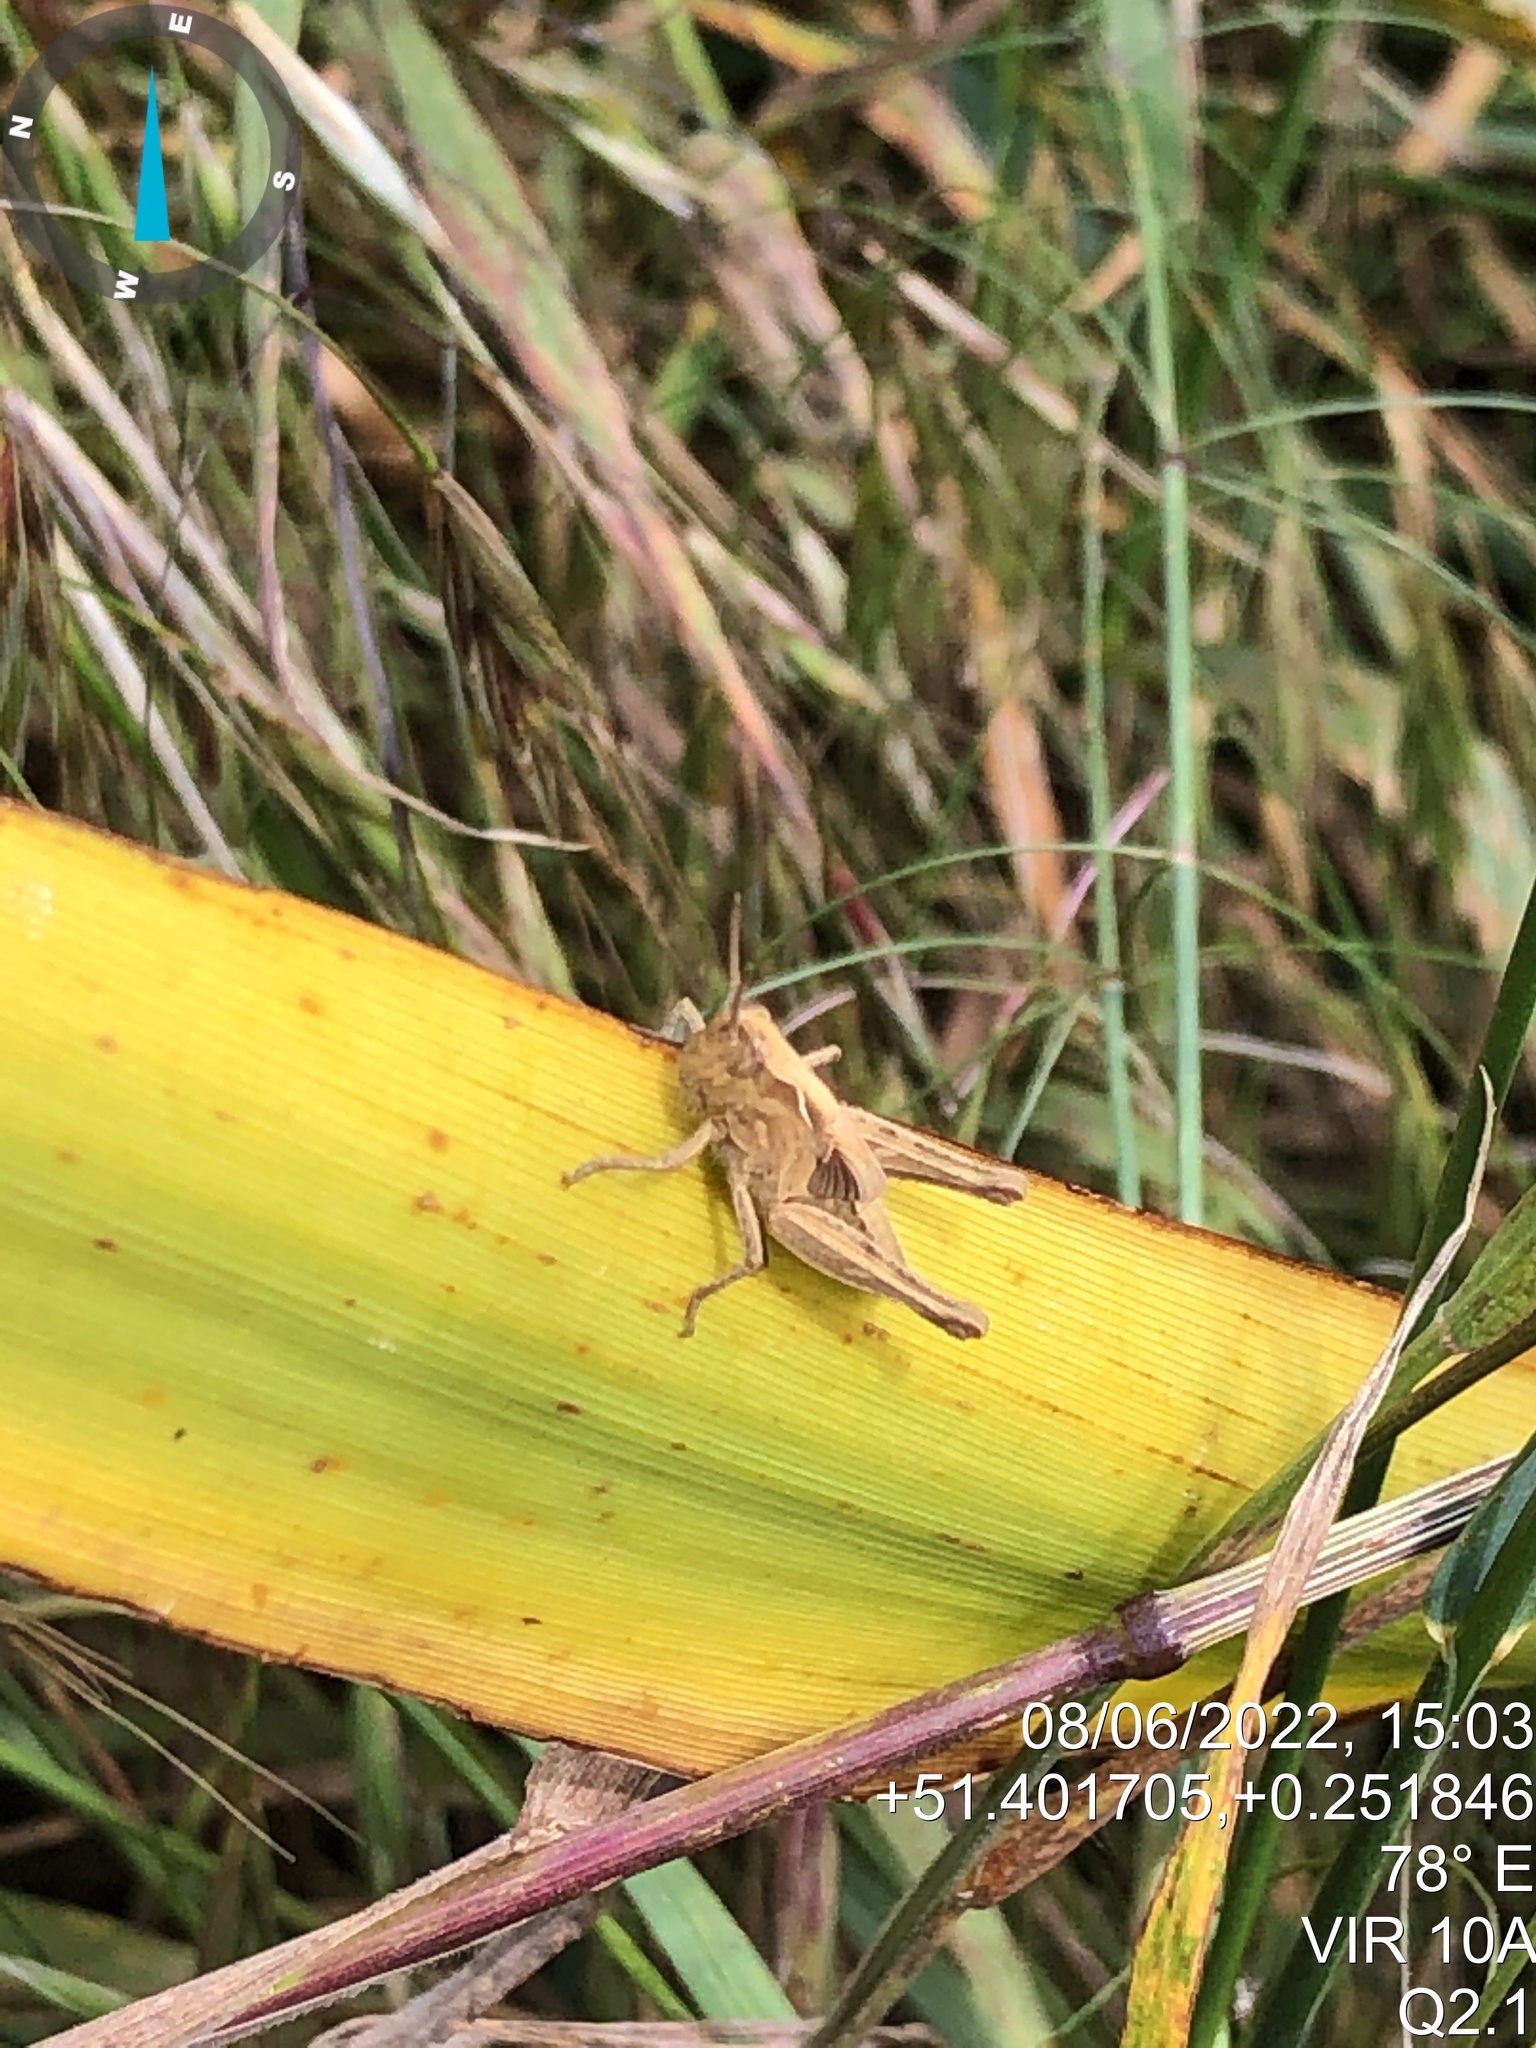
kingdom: Animalia
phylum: Arthropoda
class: Insecta
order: Orthoptera
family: Acrididae
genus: Chorthippus
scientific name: Chorthippus brunneus
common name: Field grasshopper
